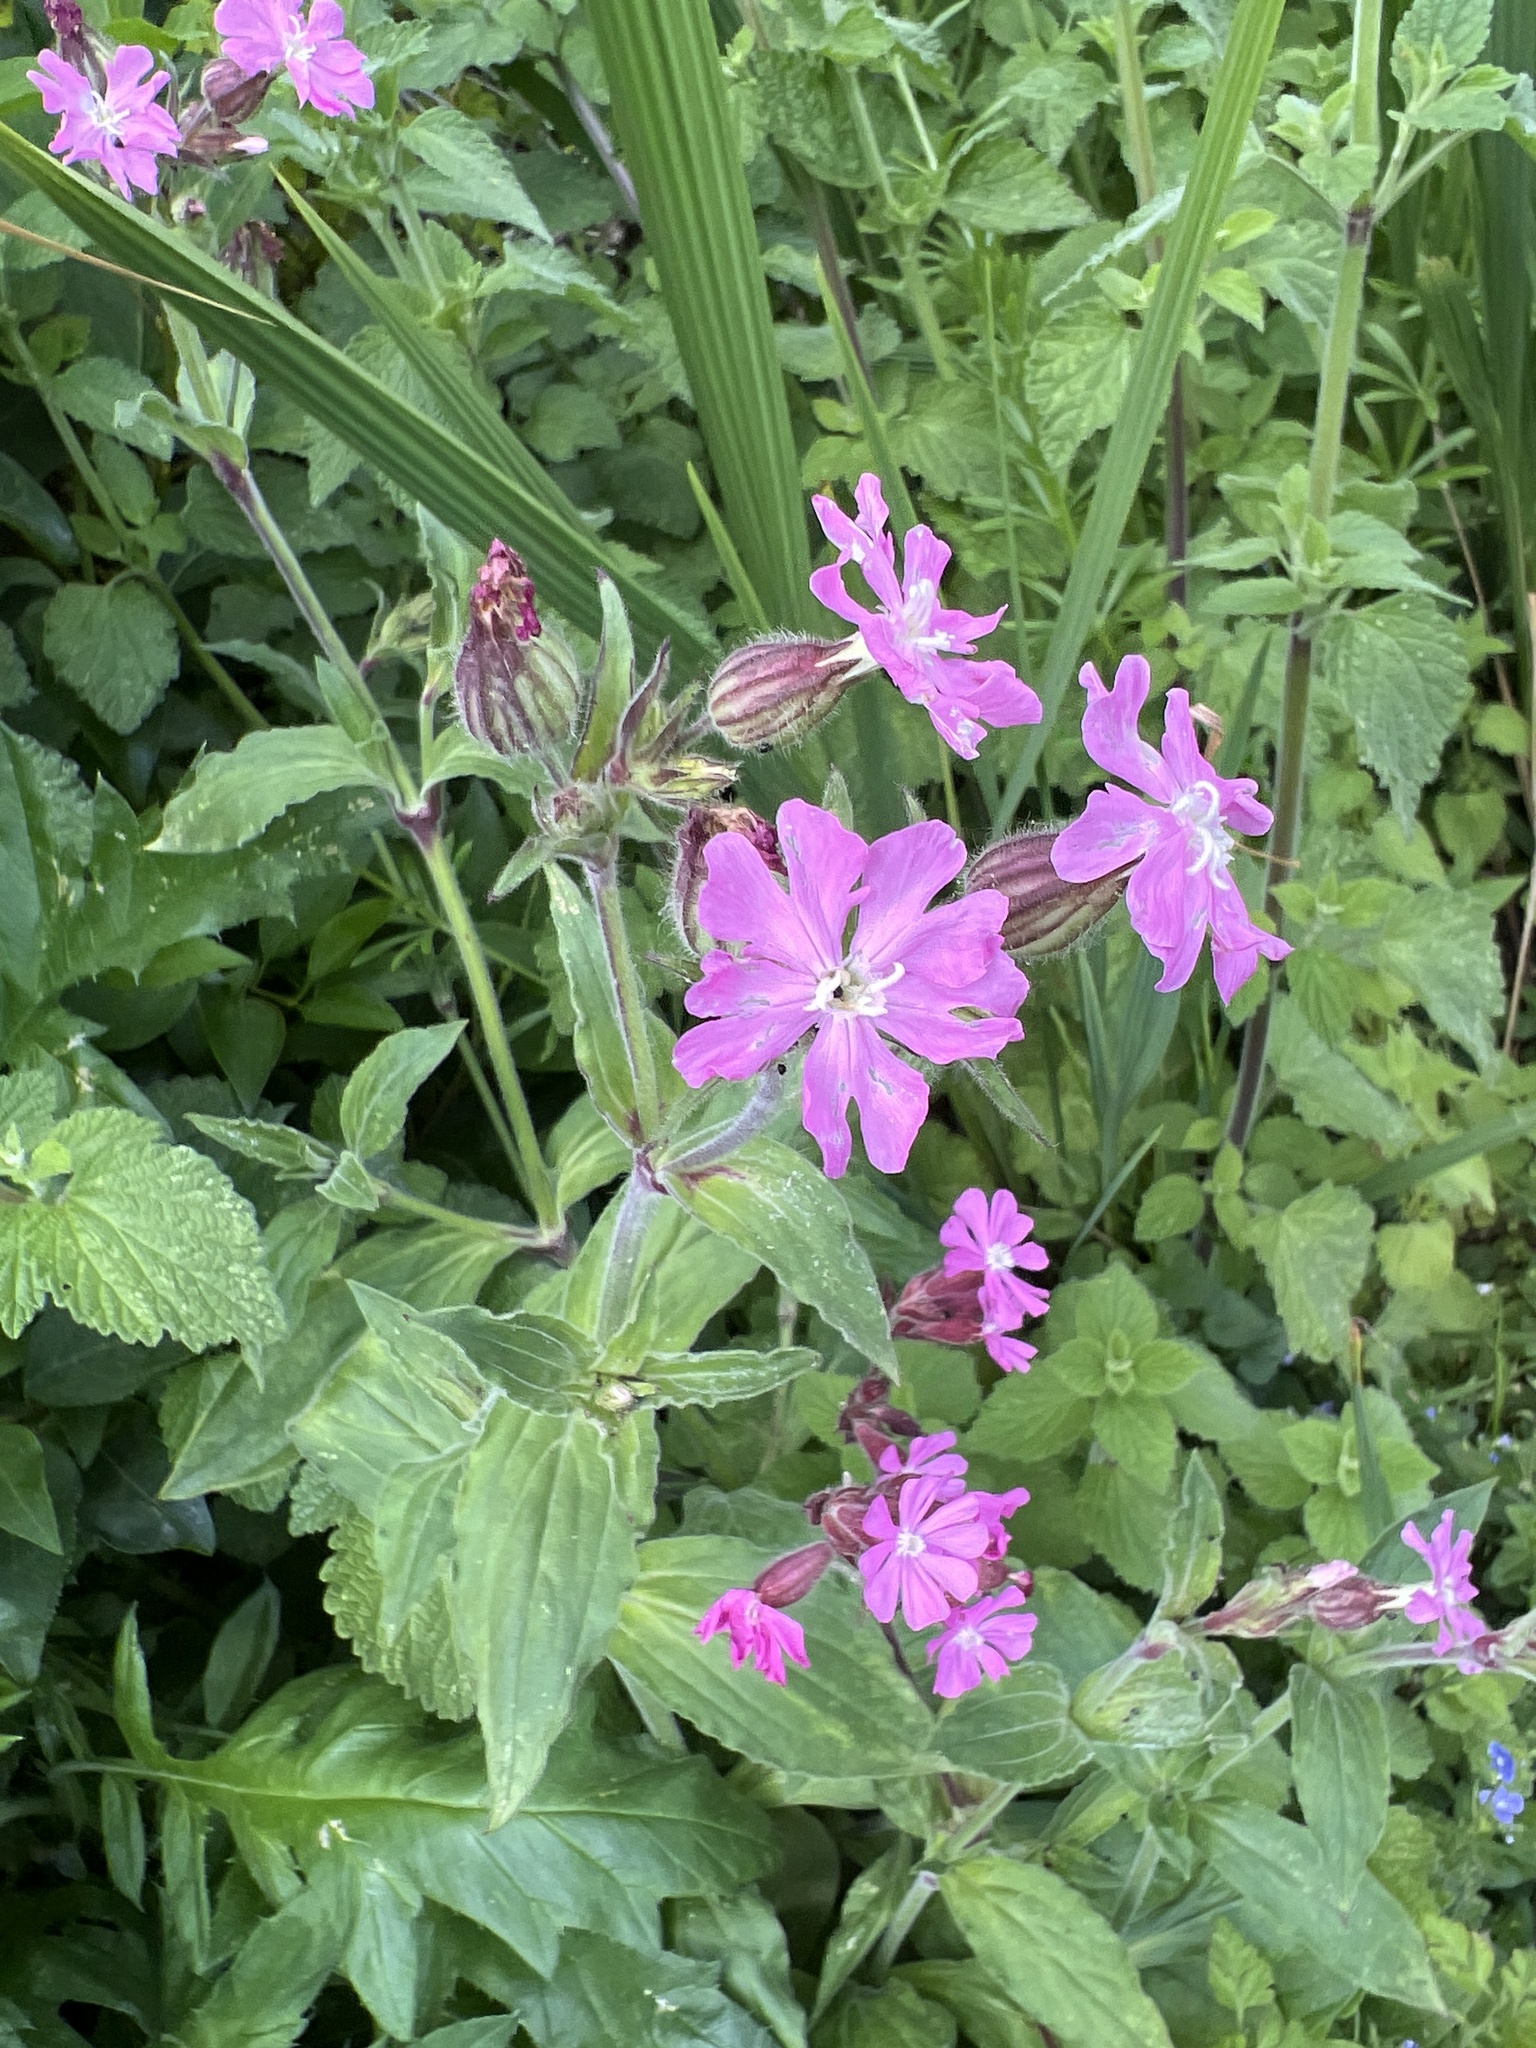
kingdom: Plantae
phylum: Tracheophyta
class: Magnoliopsida
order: Caryophyllales
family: Caryophyllaceae
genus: Silene
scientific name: Silene dioica
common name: Red campion
